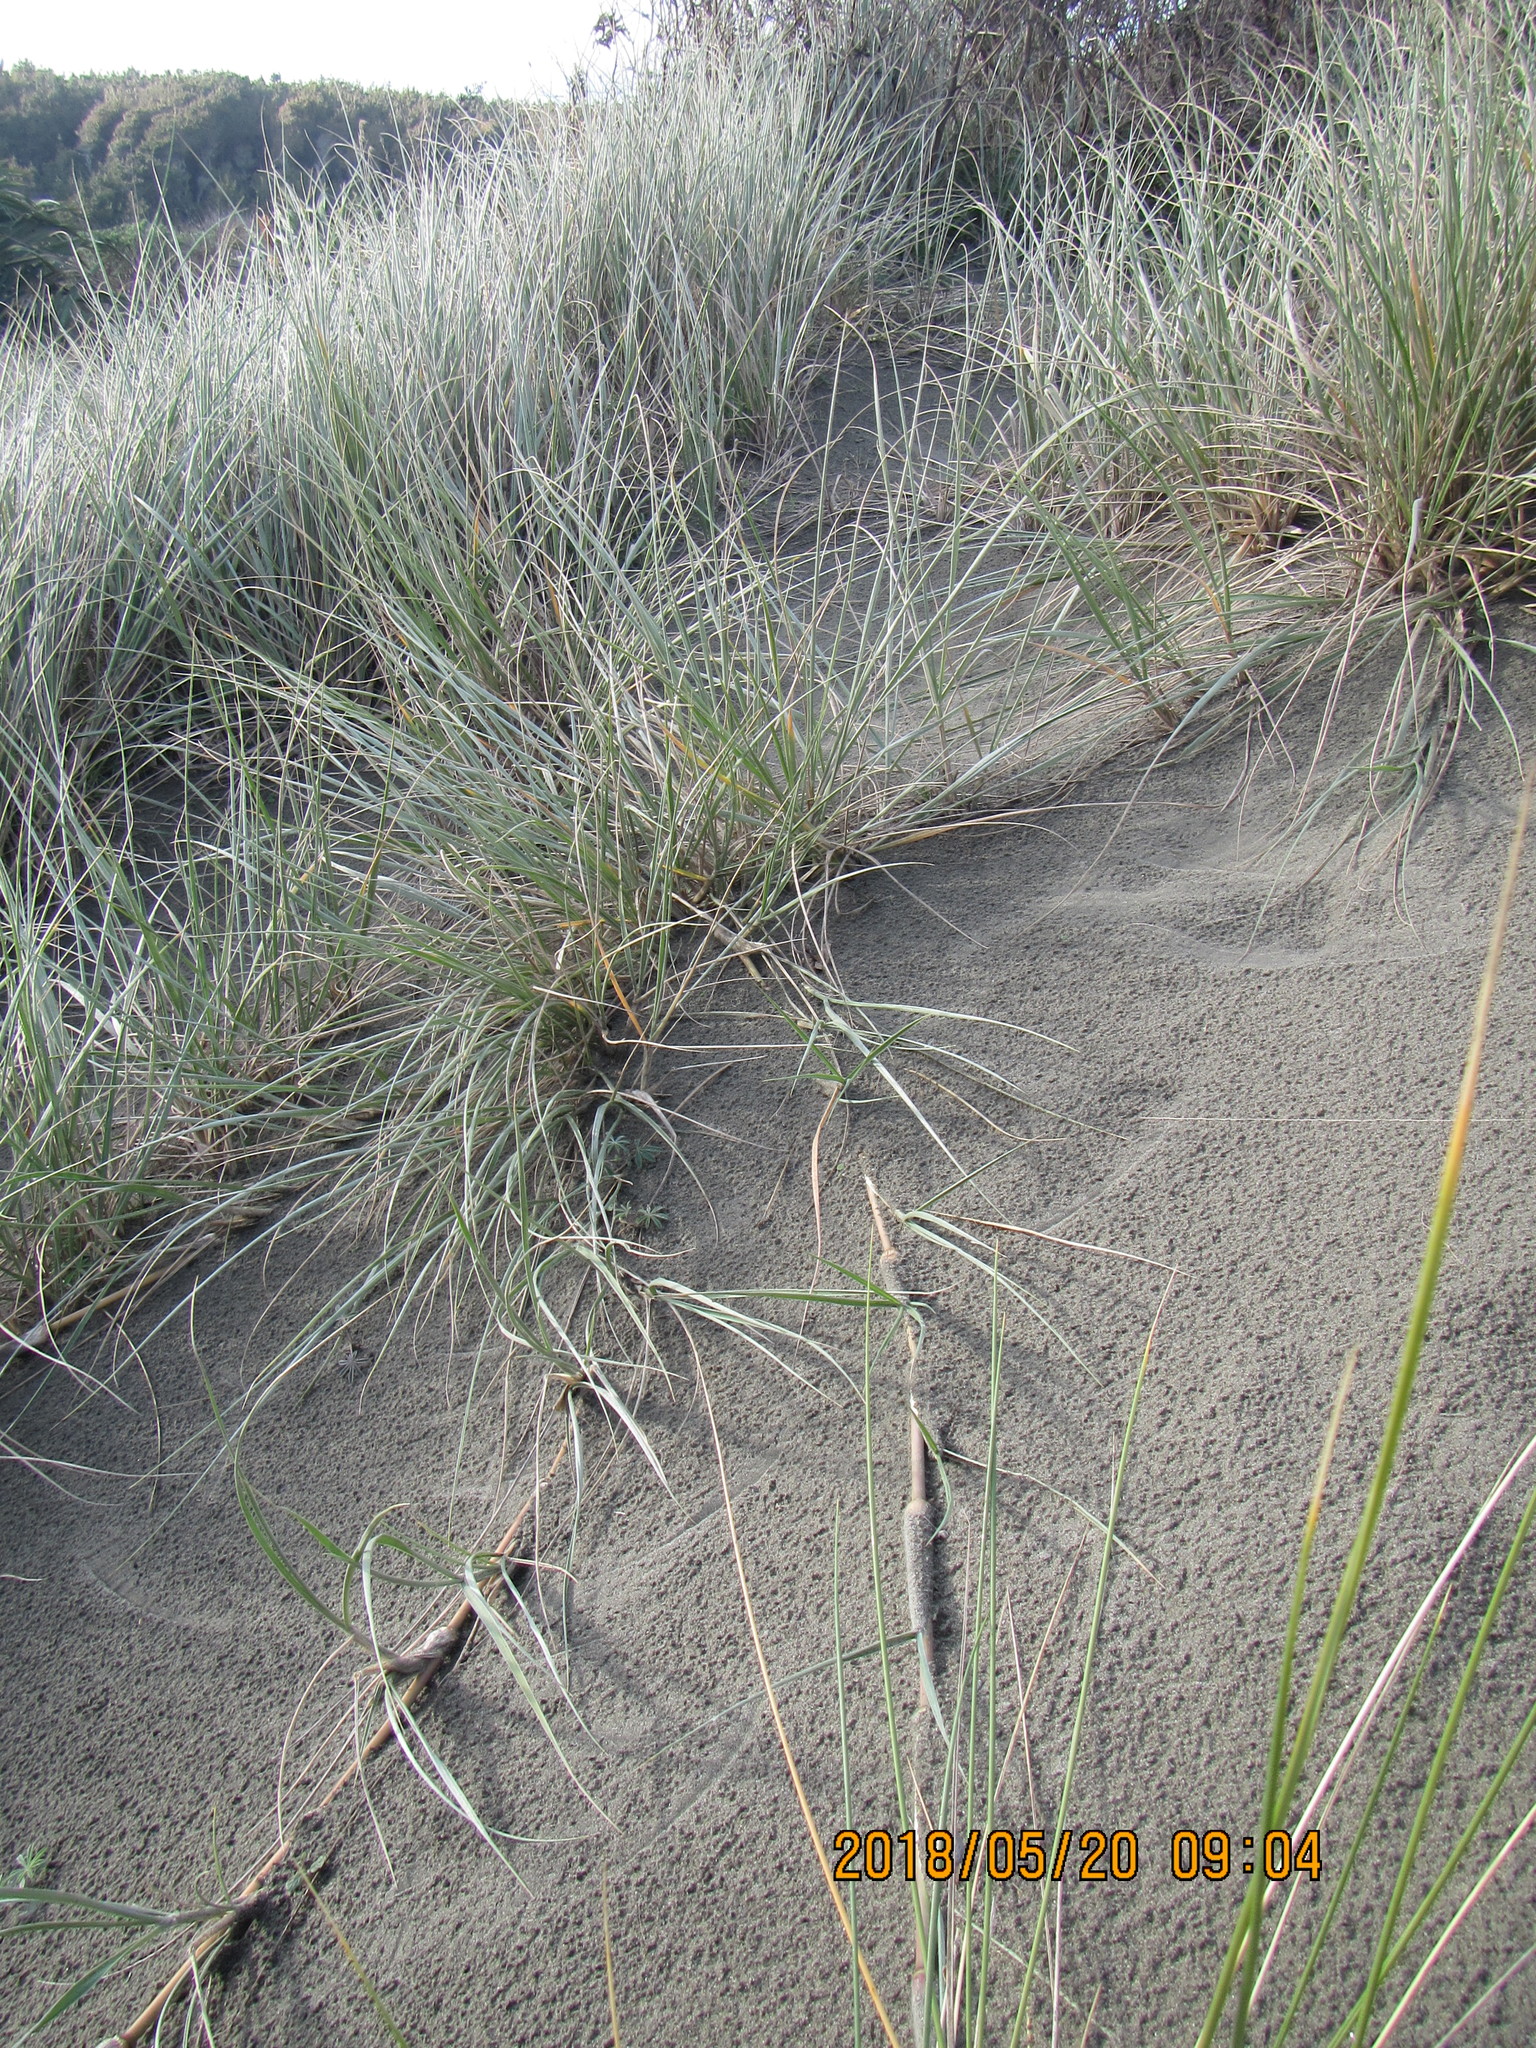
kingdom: Plantae
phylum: Tracheophyta
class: Liliopsida
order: Poales
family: Poaceae
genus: Spinifex
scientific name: Spinifex sericeus
